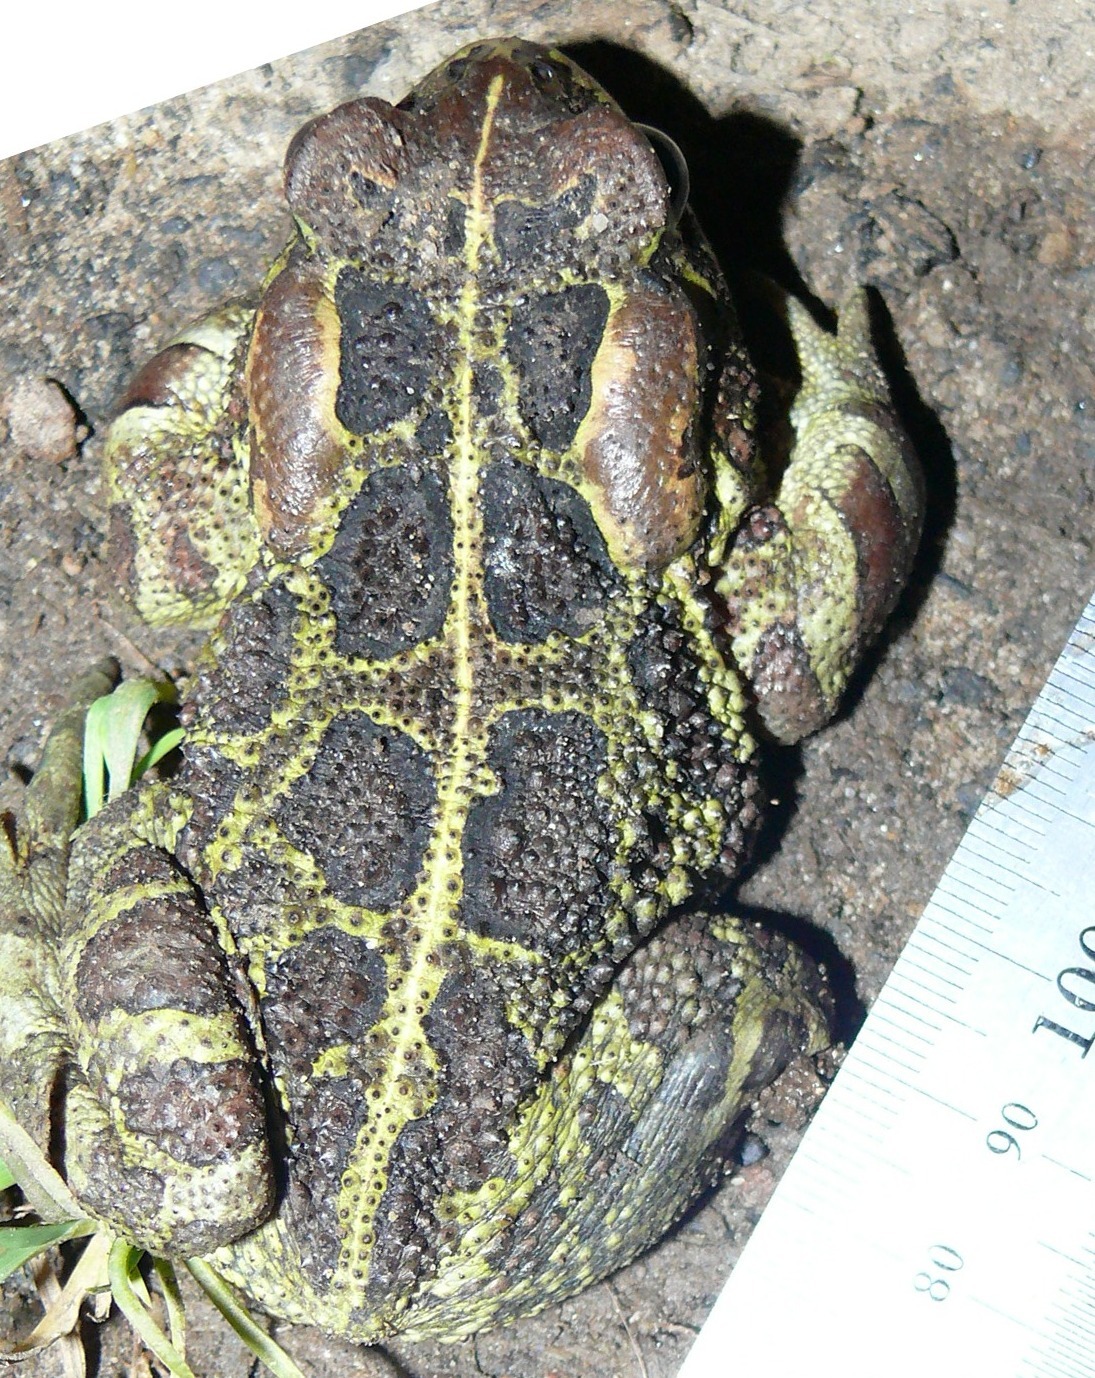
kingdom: Animalia
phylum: Chordata
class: Amphibia
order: Anura
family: Bufonidae
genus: Sclerophrys
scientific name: Sclerophrys pantherina
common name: Panther toad
